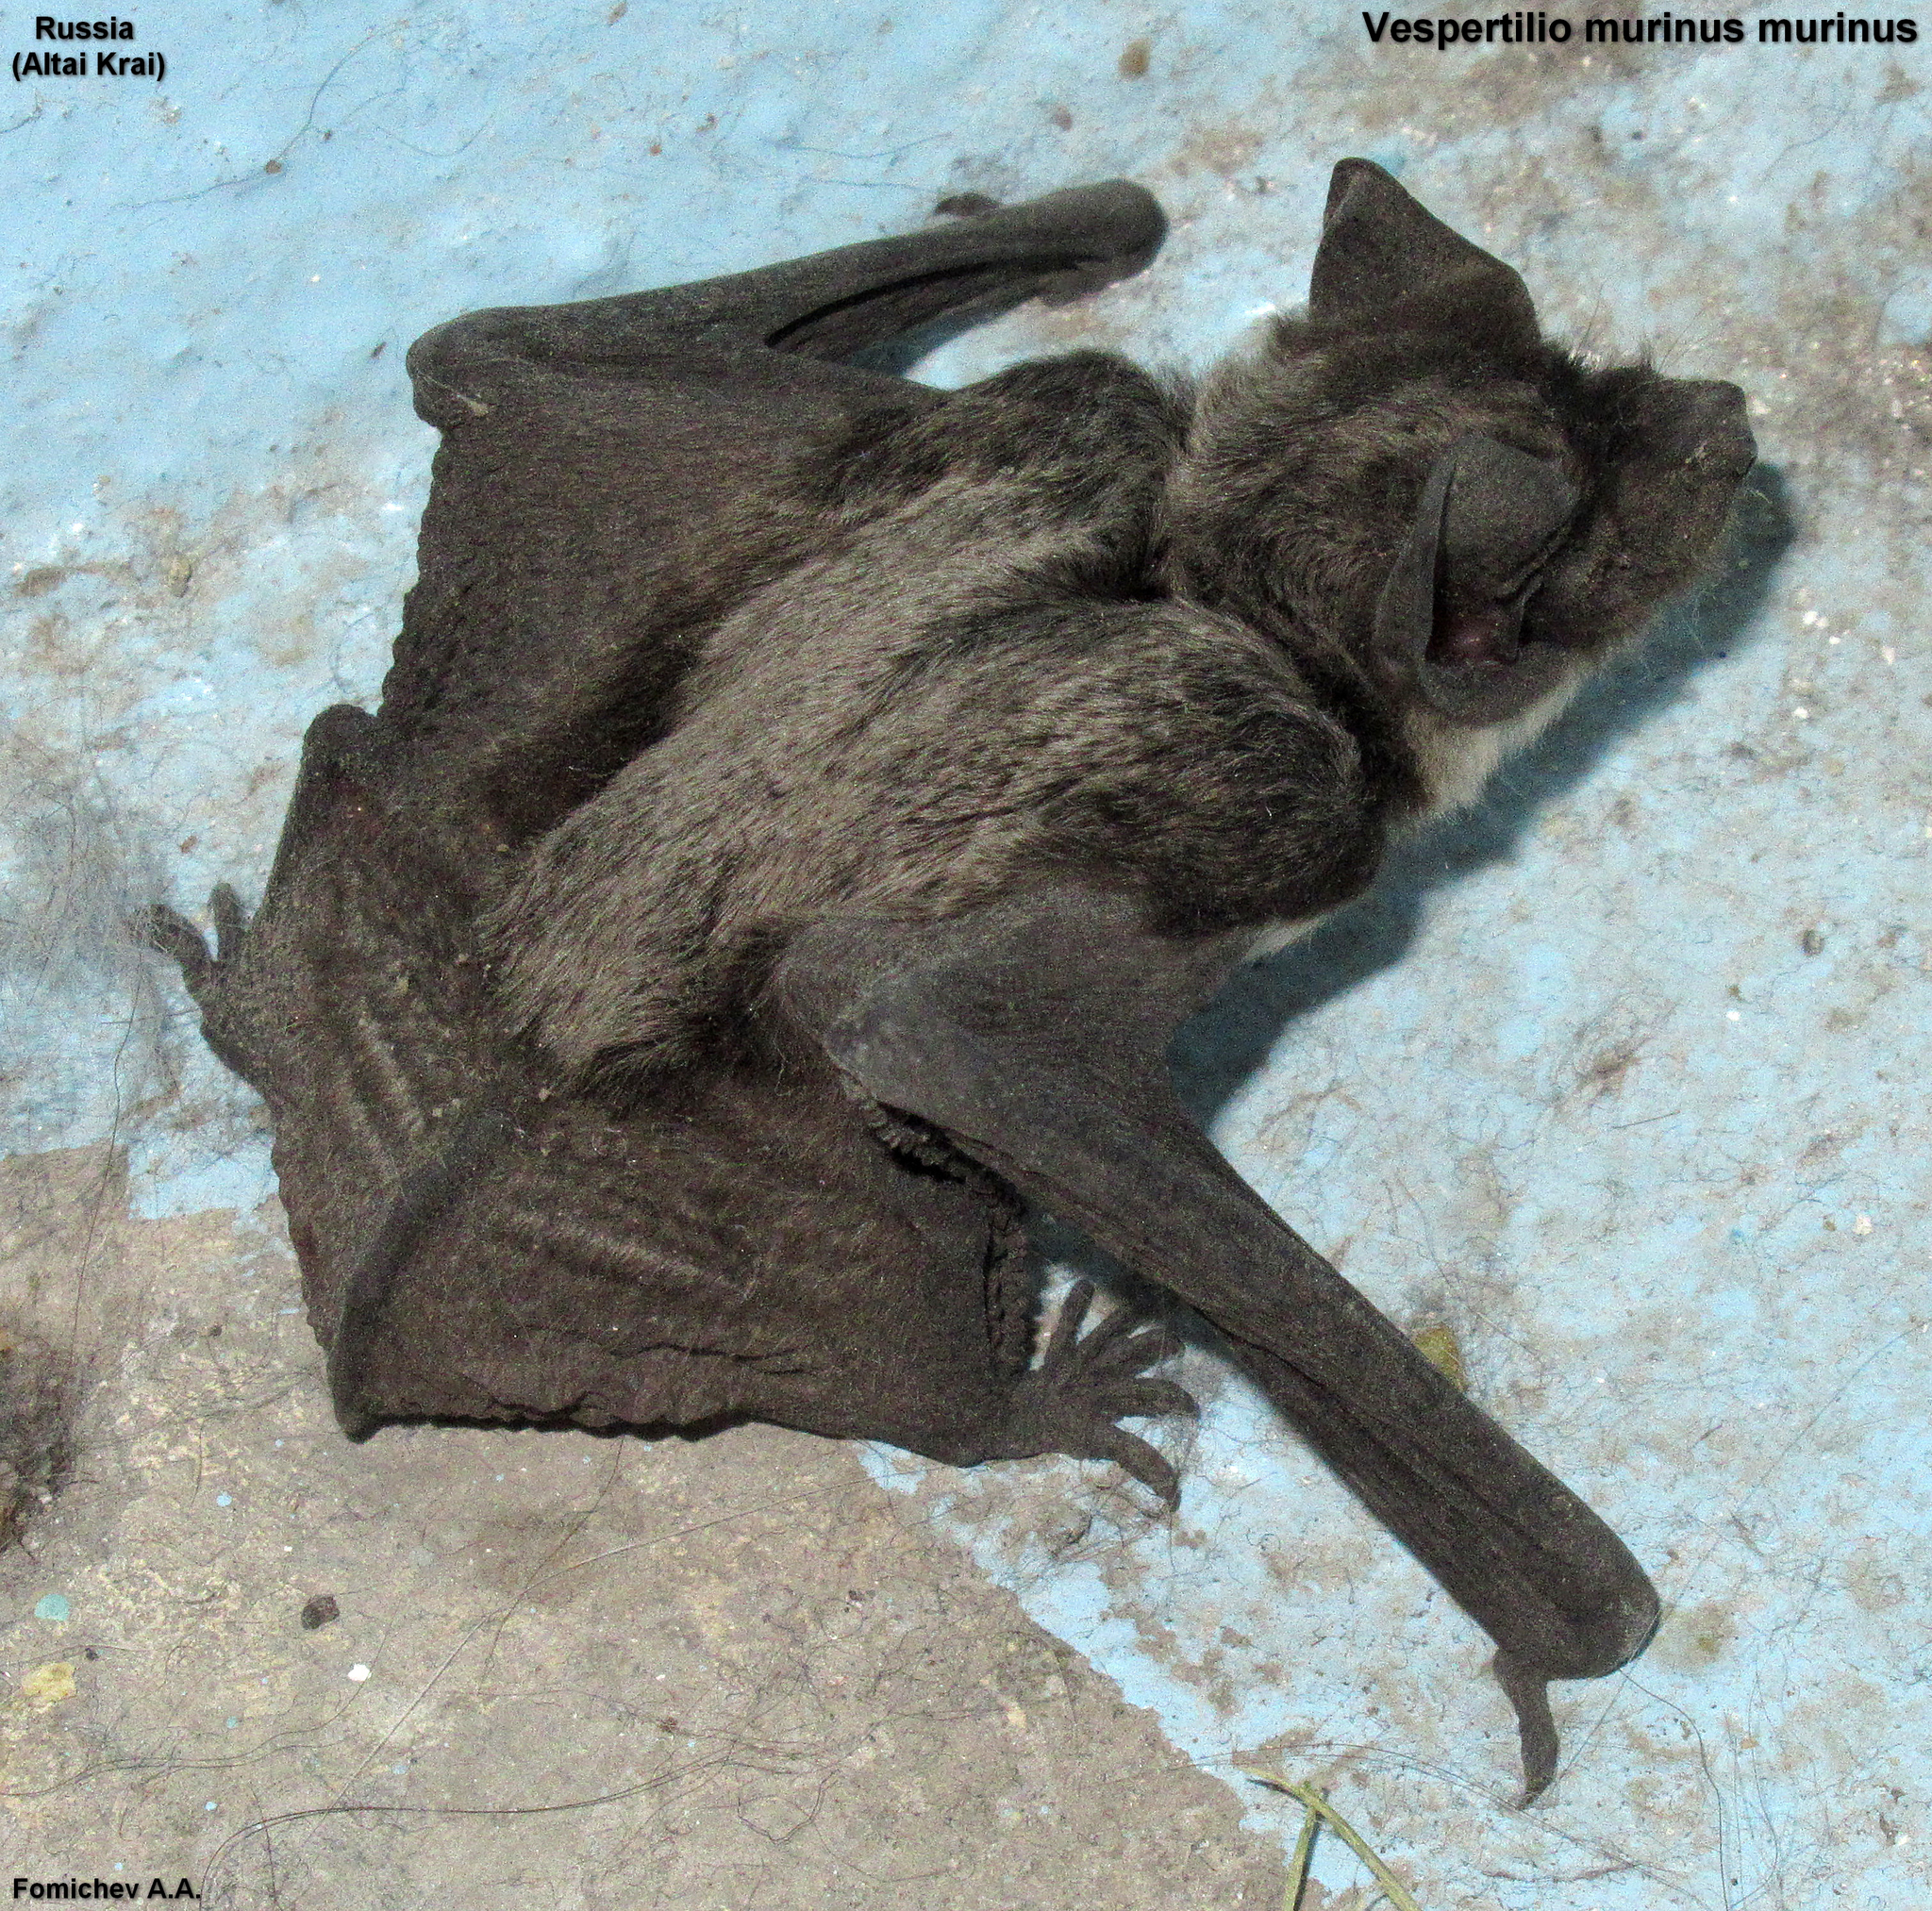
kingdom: Animalia
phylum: Chordata
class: Mammalia
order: Chiroptera
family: Vespertilionidae
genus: Vespertilio
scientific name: Vespertilio murinus
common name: Particolored bat
